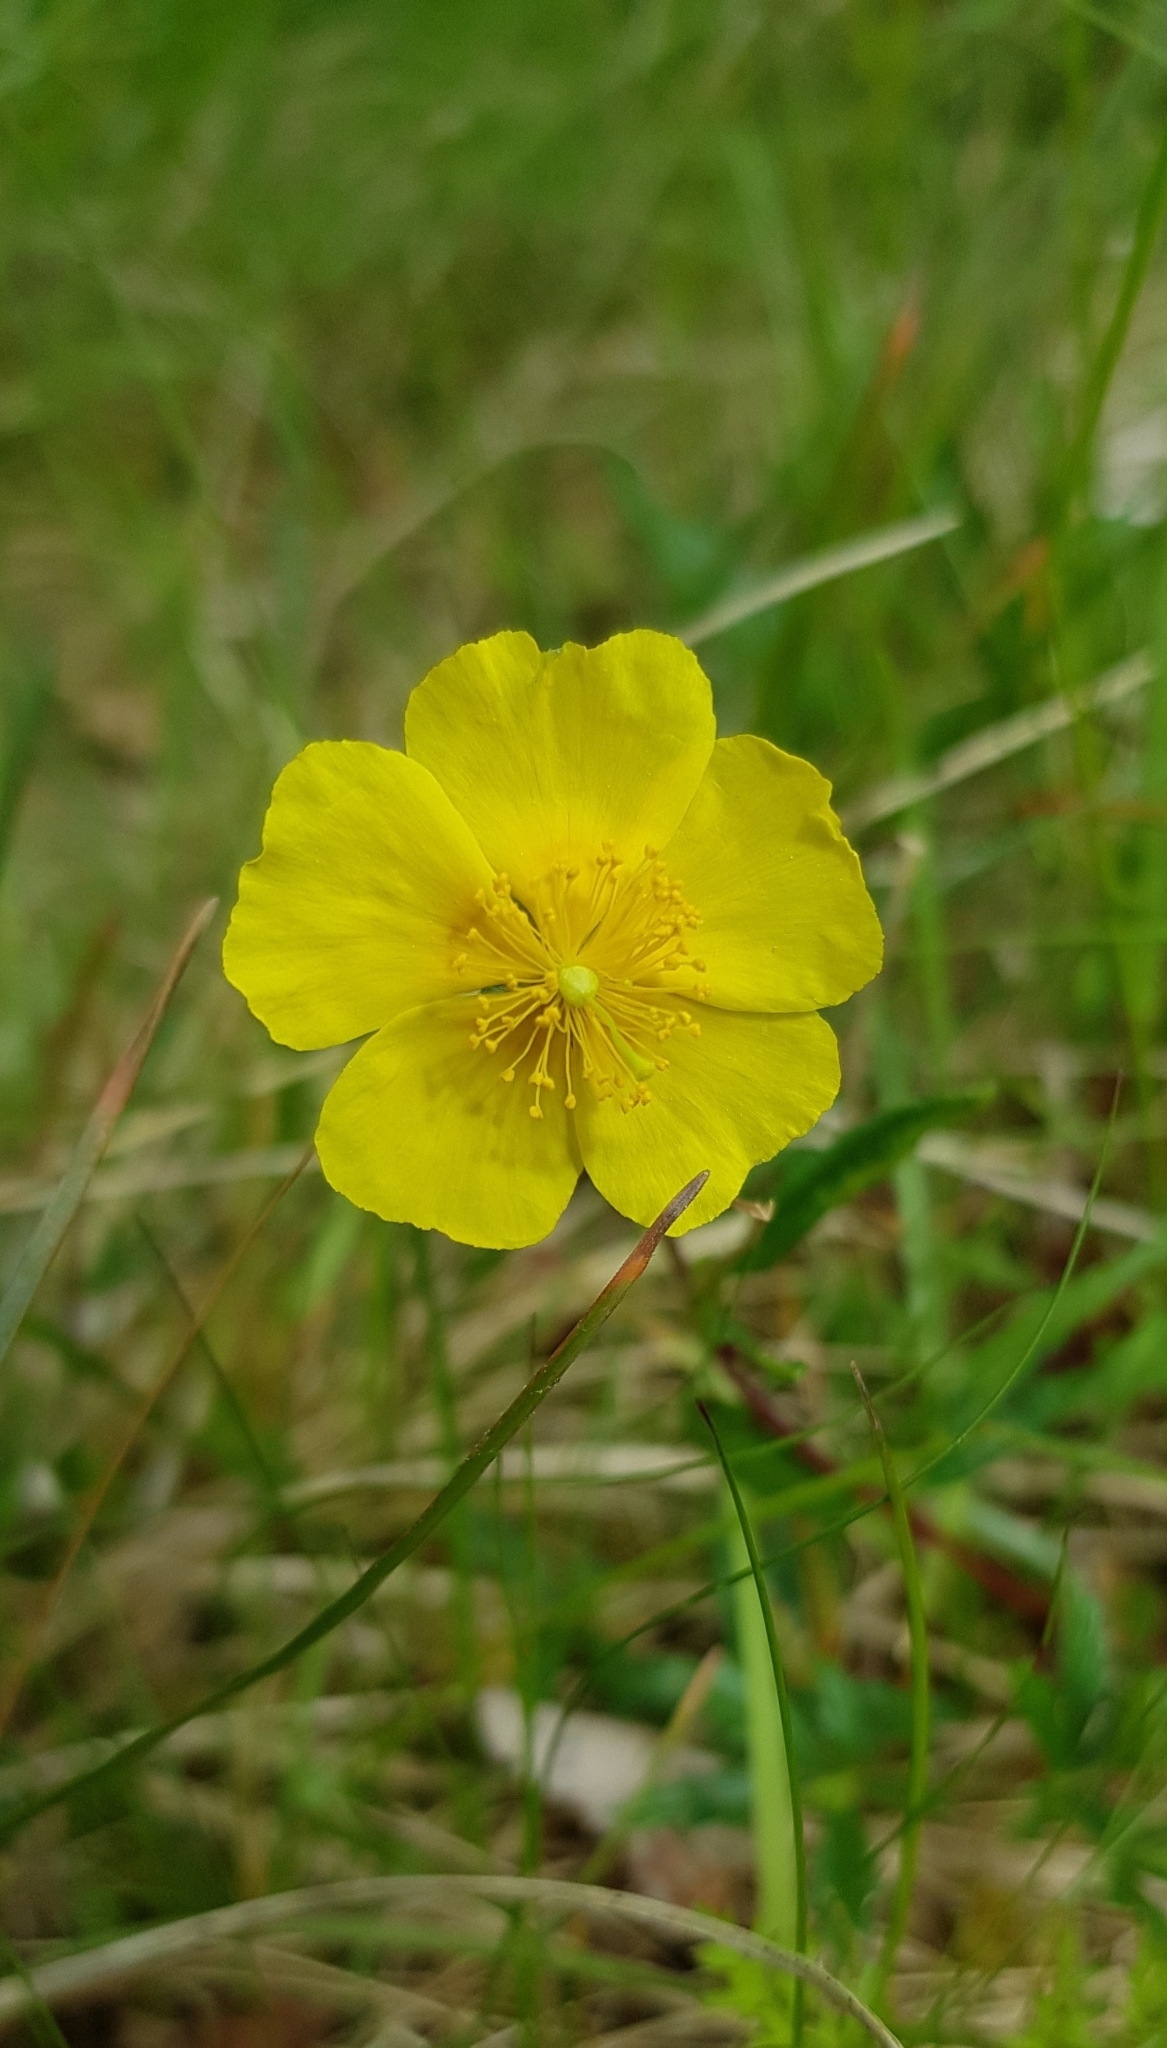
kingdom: Plantae
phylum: Tracheophyta
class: Magnoliopsida
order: Malvales
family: Cistaceae
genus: Helianthemum
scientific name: Helianthemum nummularium
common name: Common rock-rose
